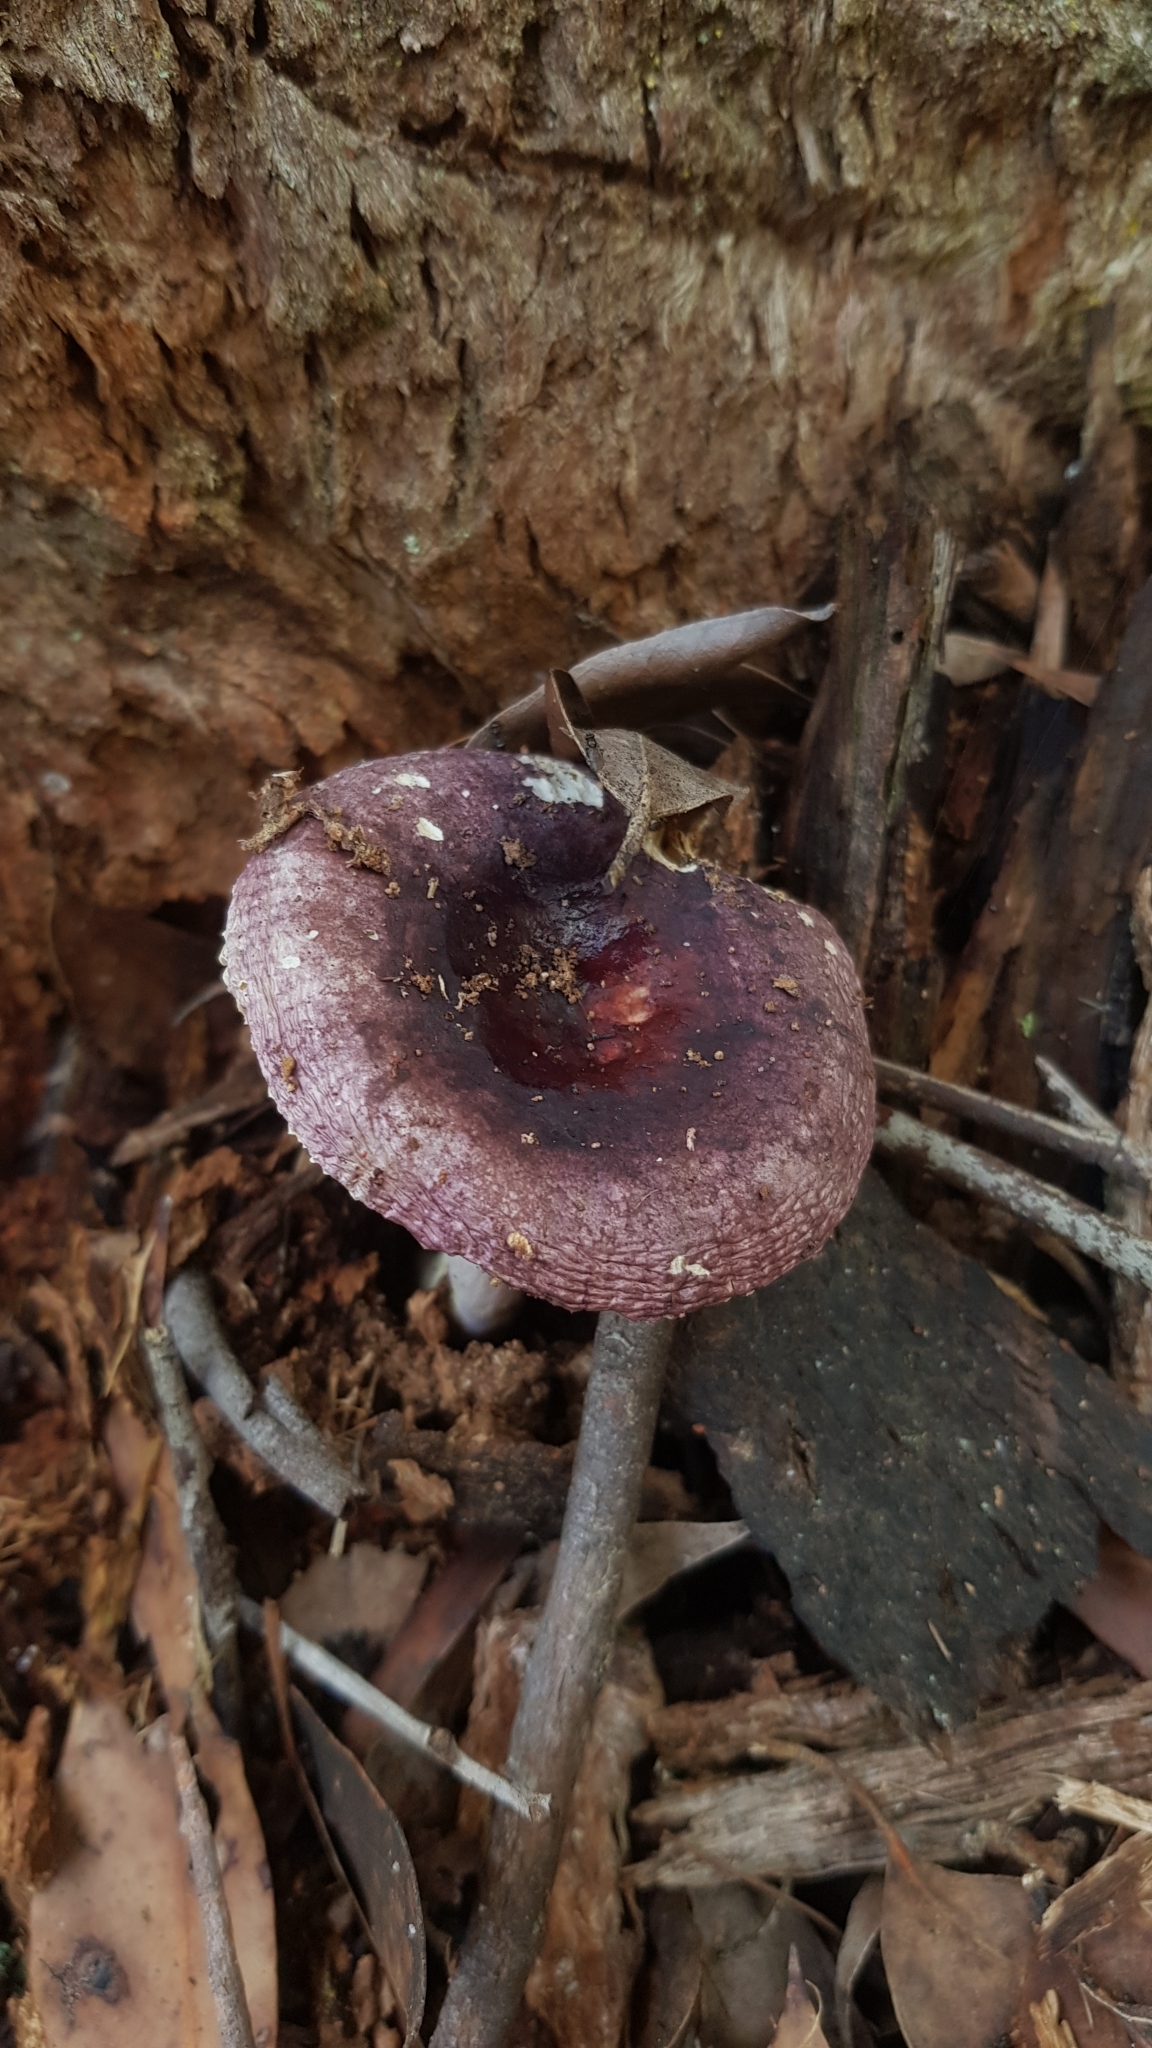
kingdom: Fungi
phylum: Basidiomycota
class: Agaricomycetes
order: Russulales
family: Russulaceae
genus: Russula
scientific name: Russula lenkunya
